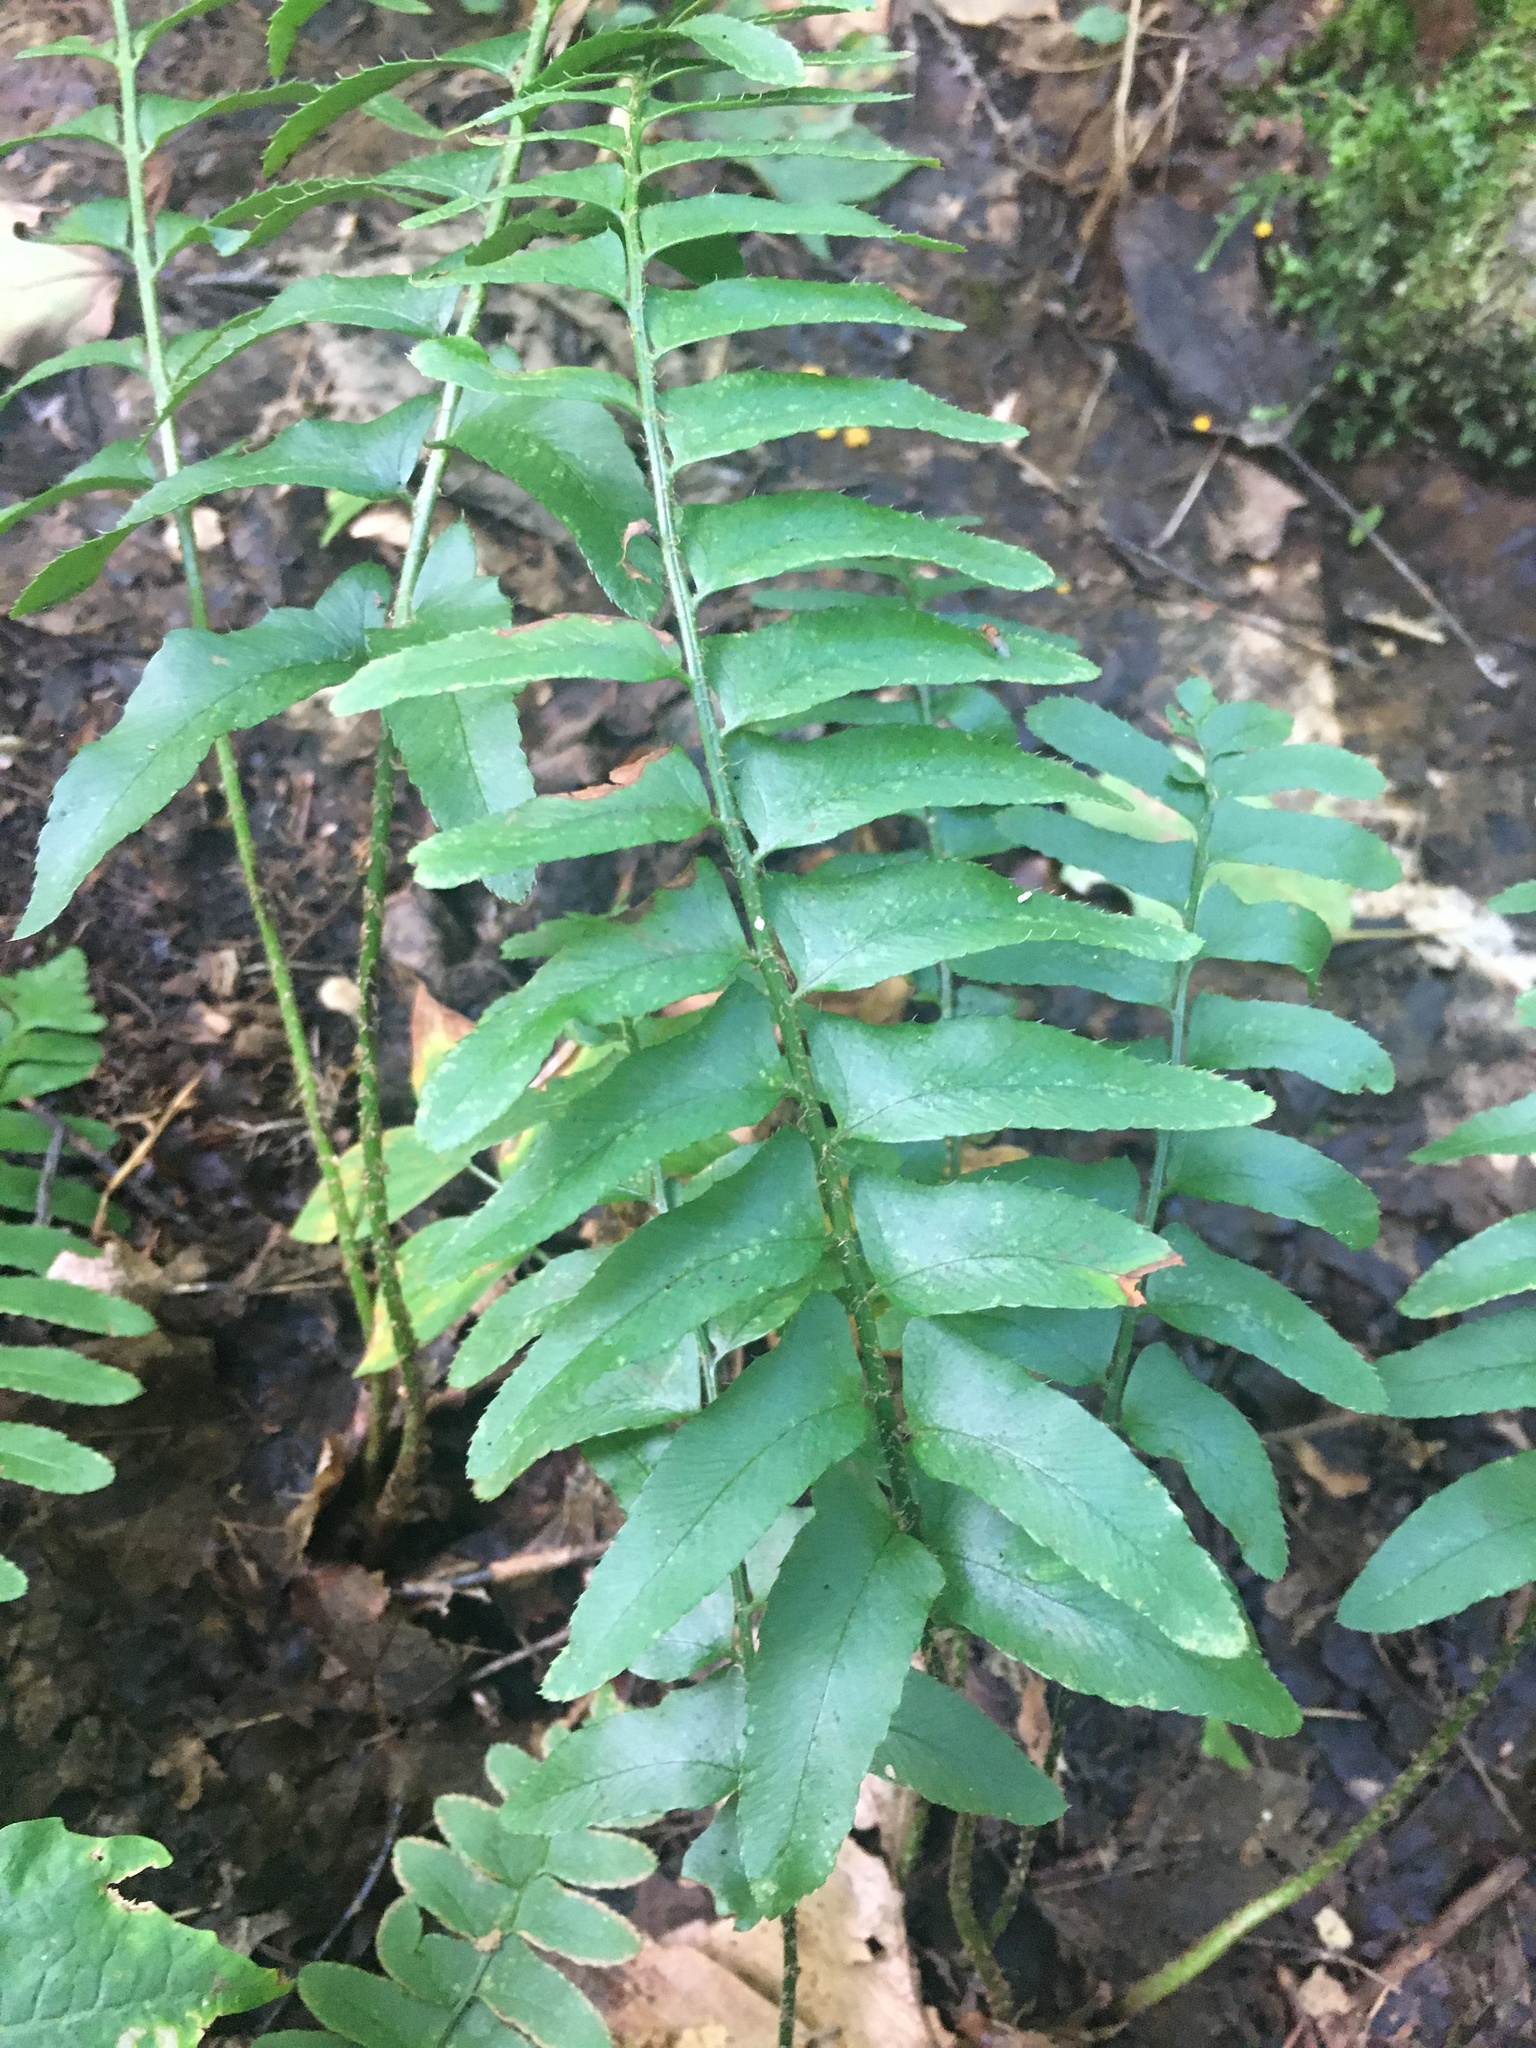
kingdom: Plantae
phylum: Tracheophyta
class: Polypodiopsida
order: Polypodiales
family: Dryopteridaceae
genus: Polystichum
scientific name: Polystichum acrostichoides
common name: Christmas fern
